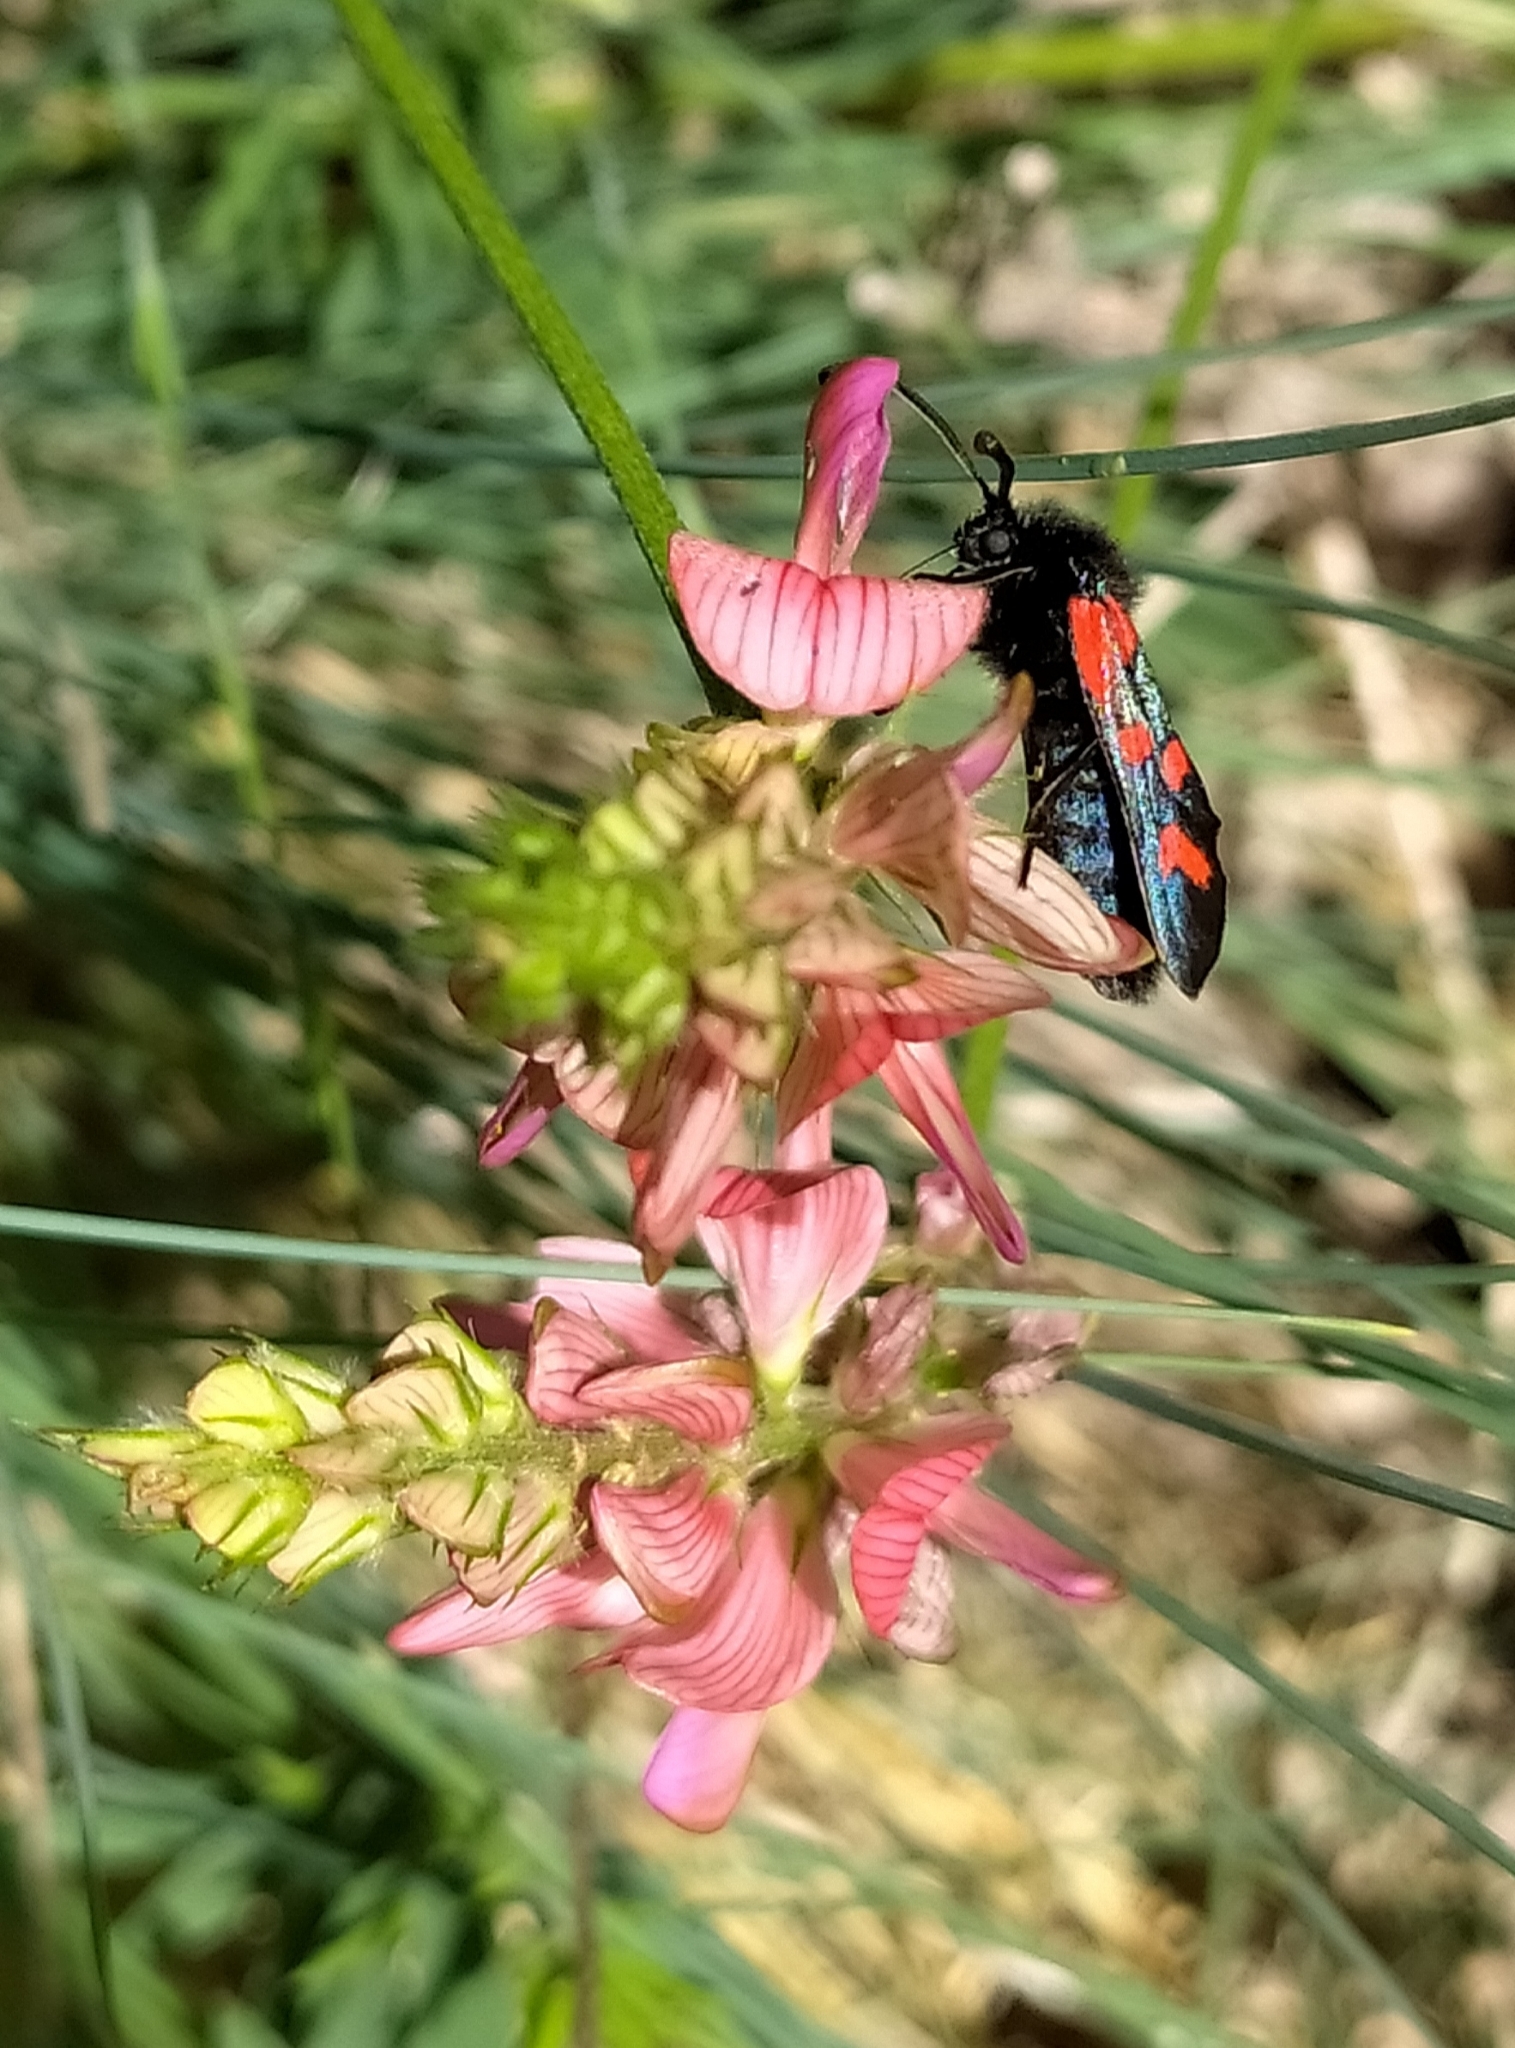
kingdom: Plantae
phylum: Tracheophyta
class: Magnoliopsida
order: Fabales
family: Fabaceae
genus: Onobrychis
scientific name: Onobrychis viciifolia
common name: Sainfoin
